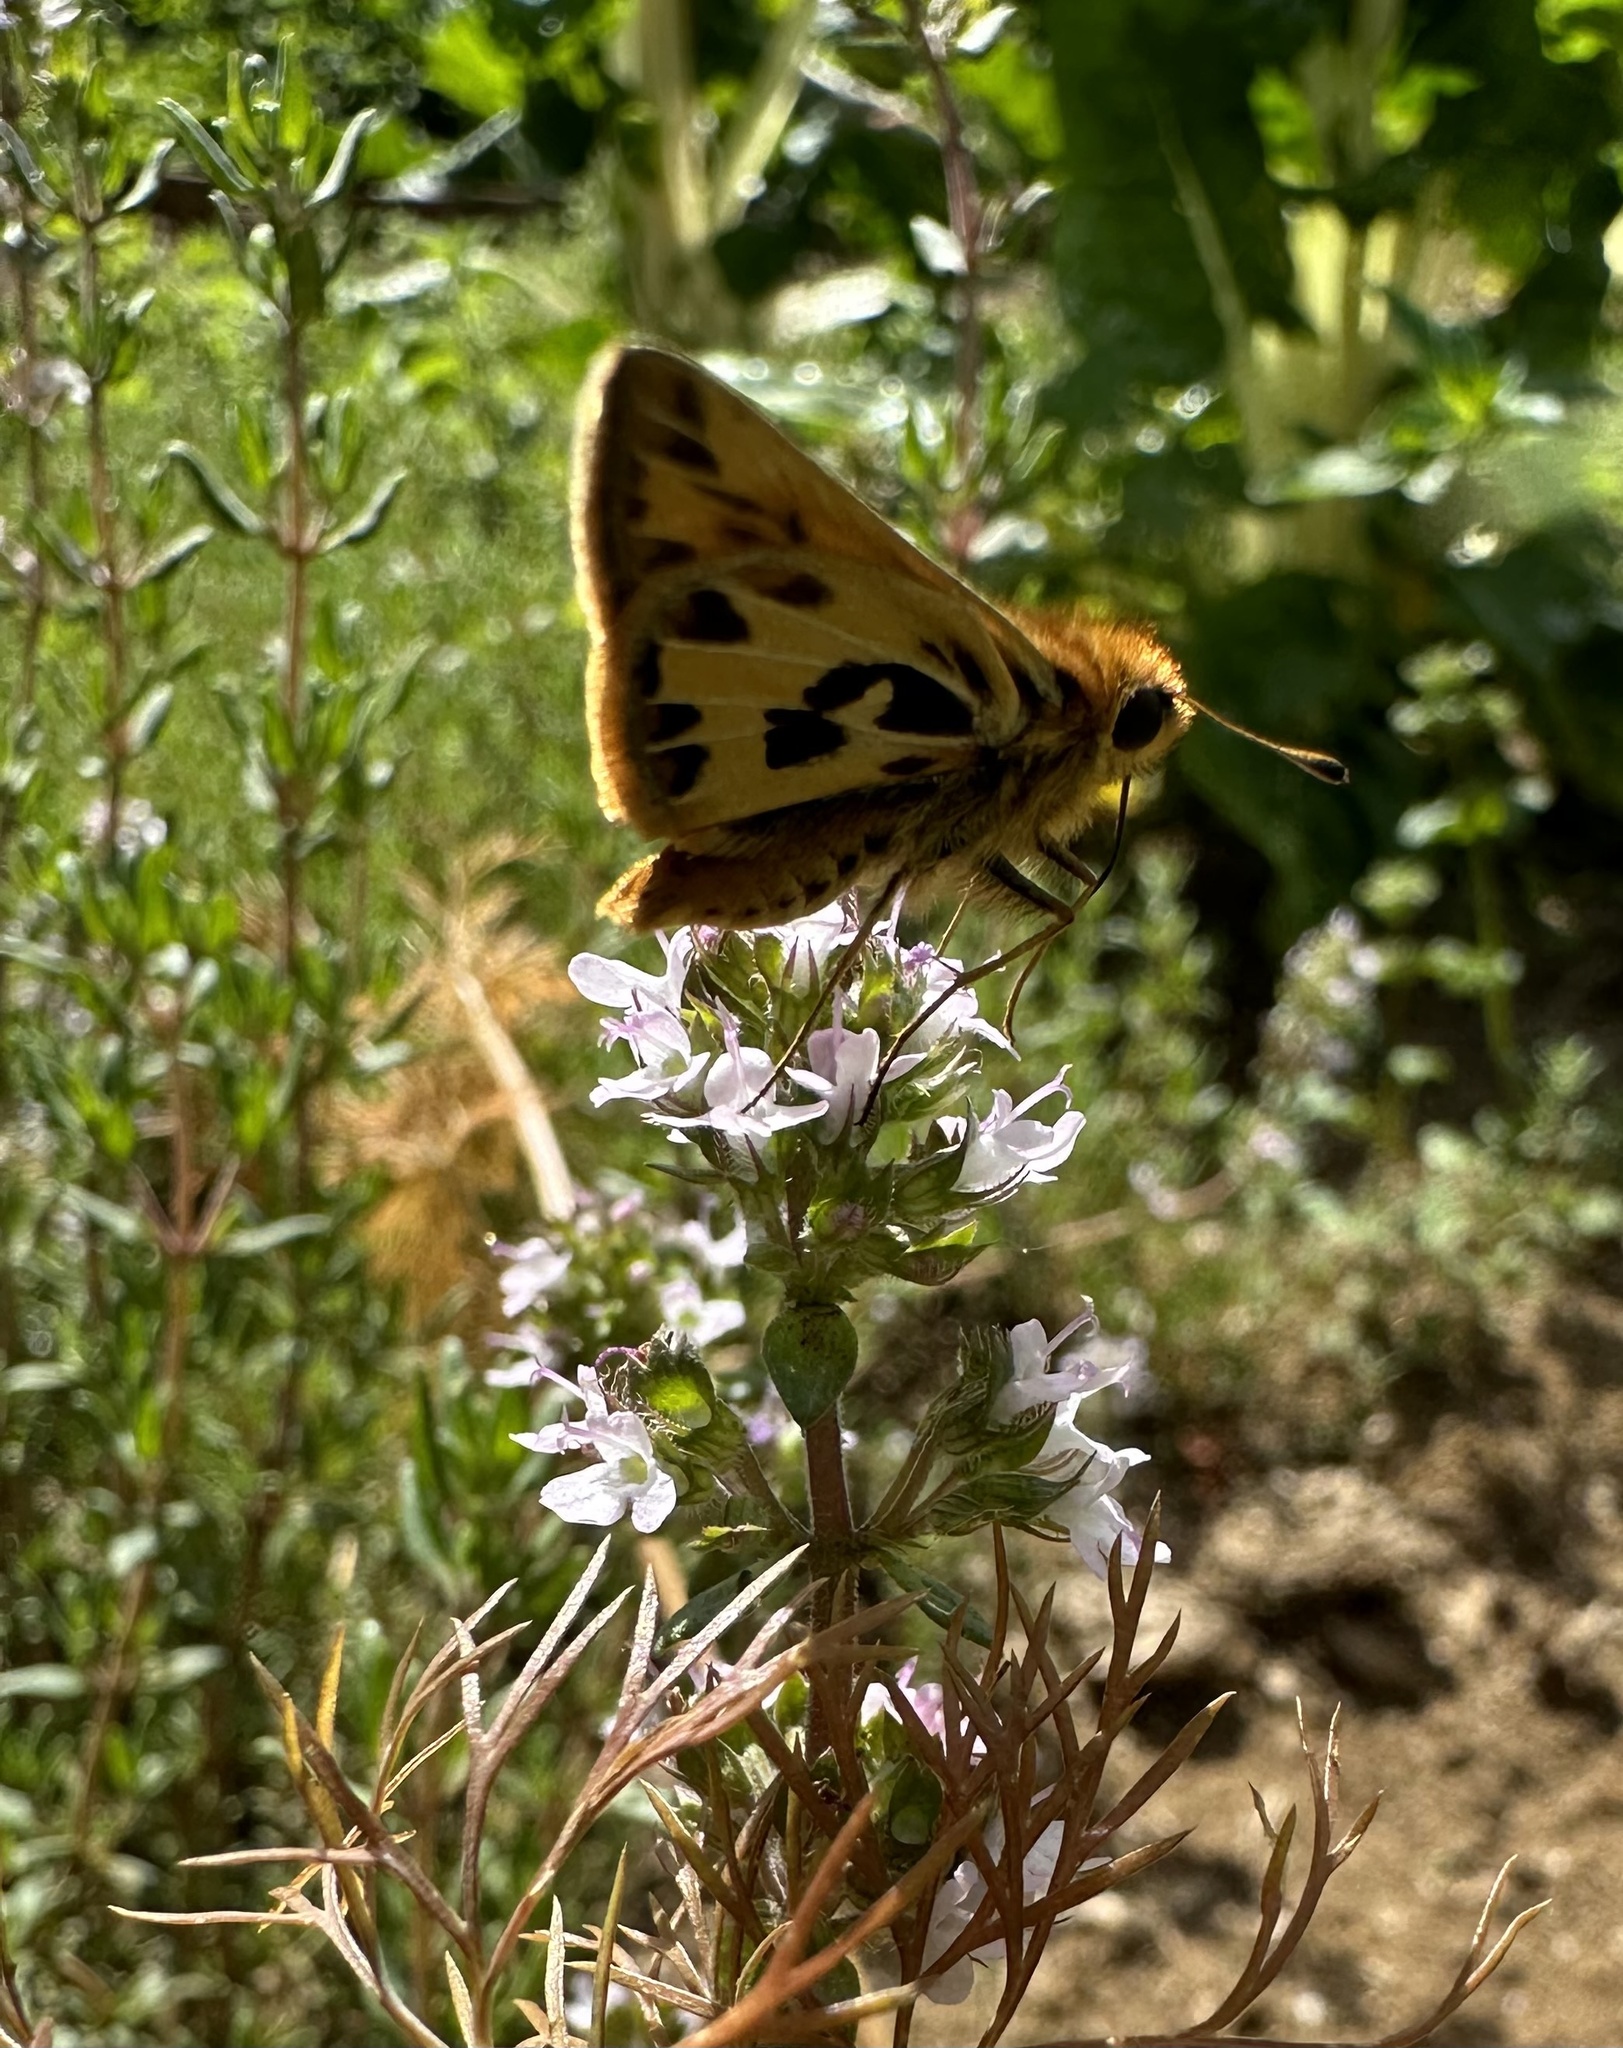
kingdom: Animalia
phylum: Arthropoda
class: Insecta
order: Lepidoptera
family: Hesperiidae
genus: Hylephila
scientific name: Hylephila fasciolata
